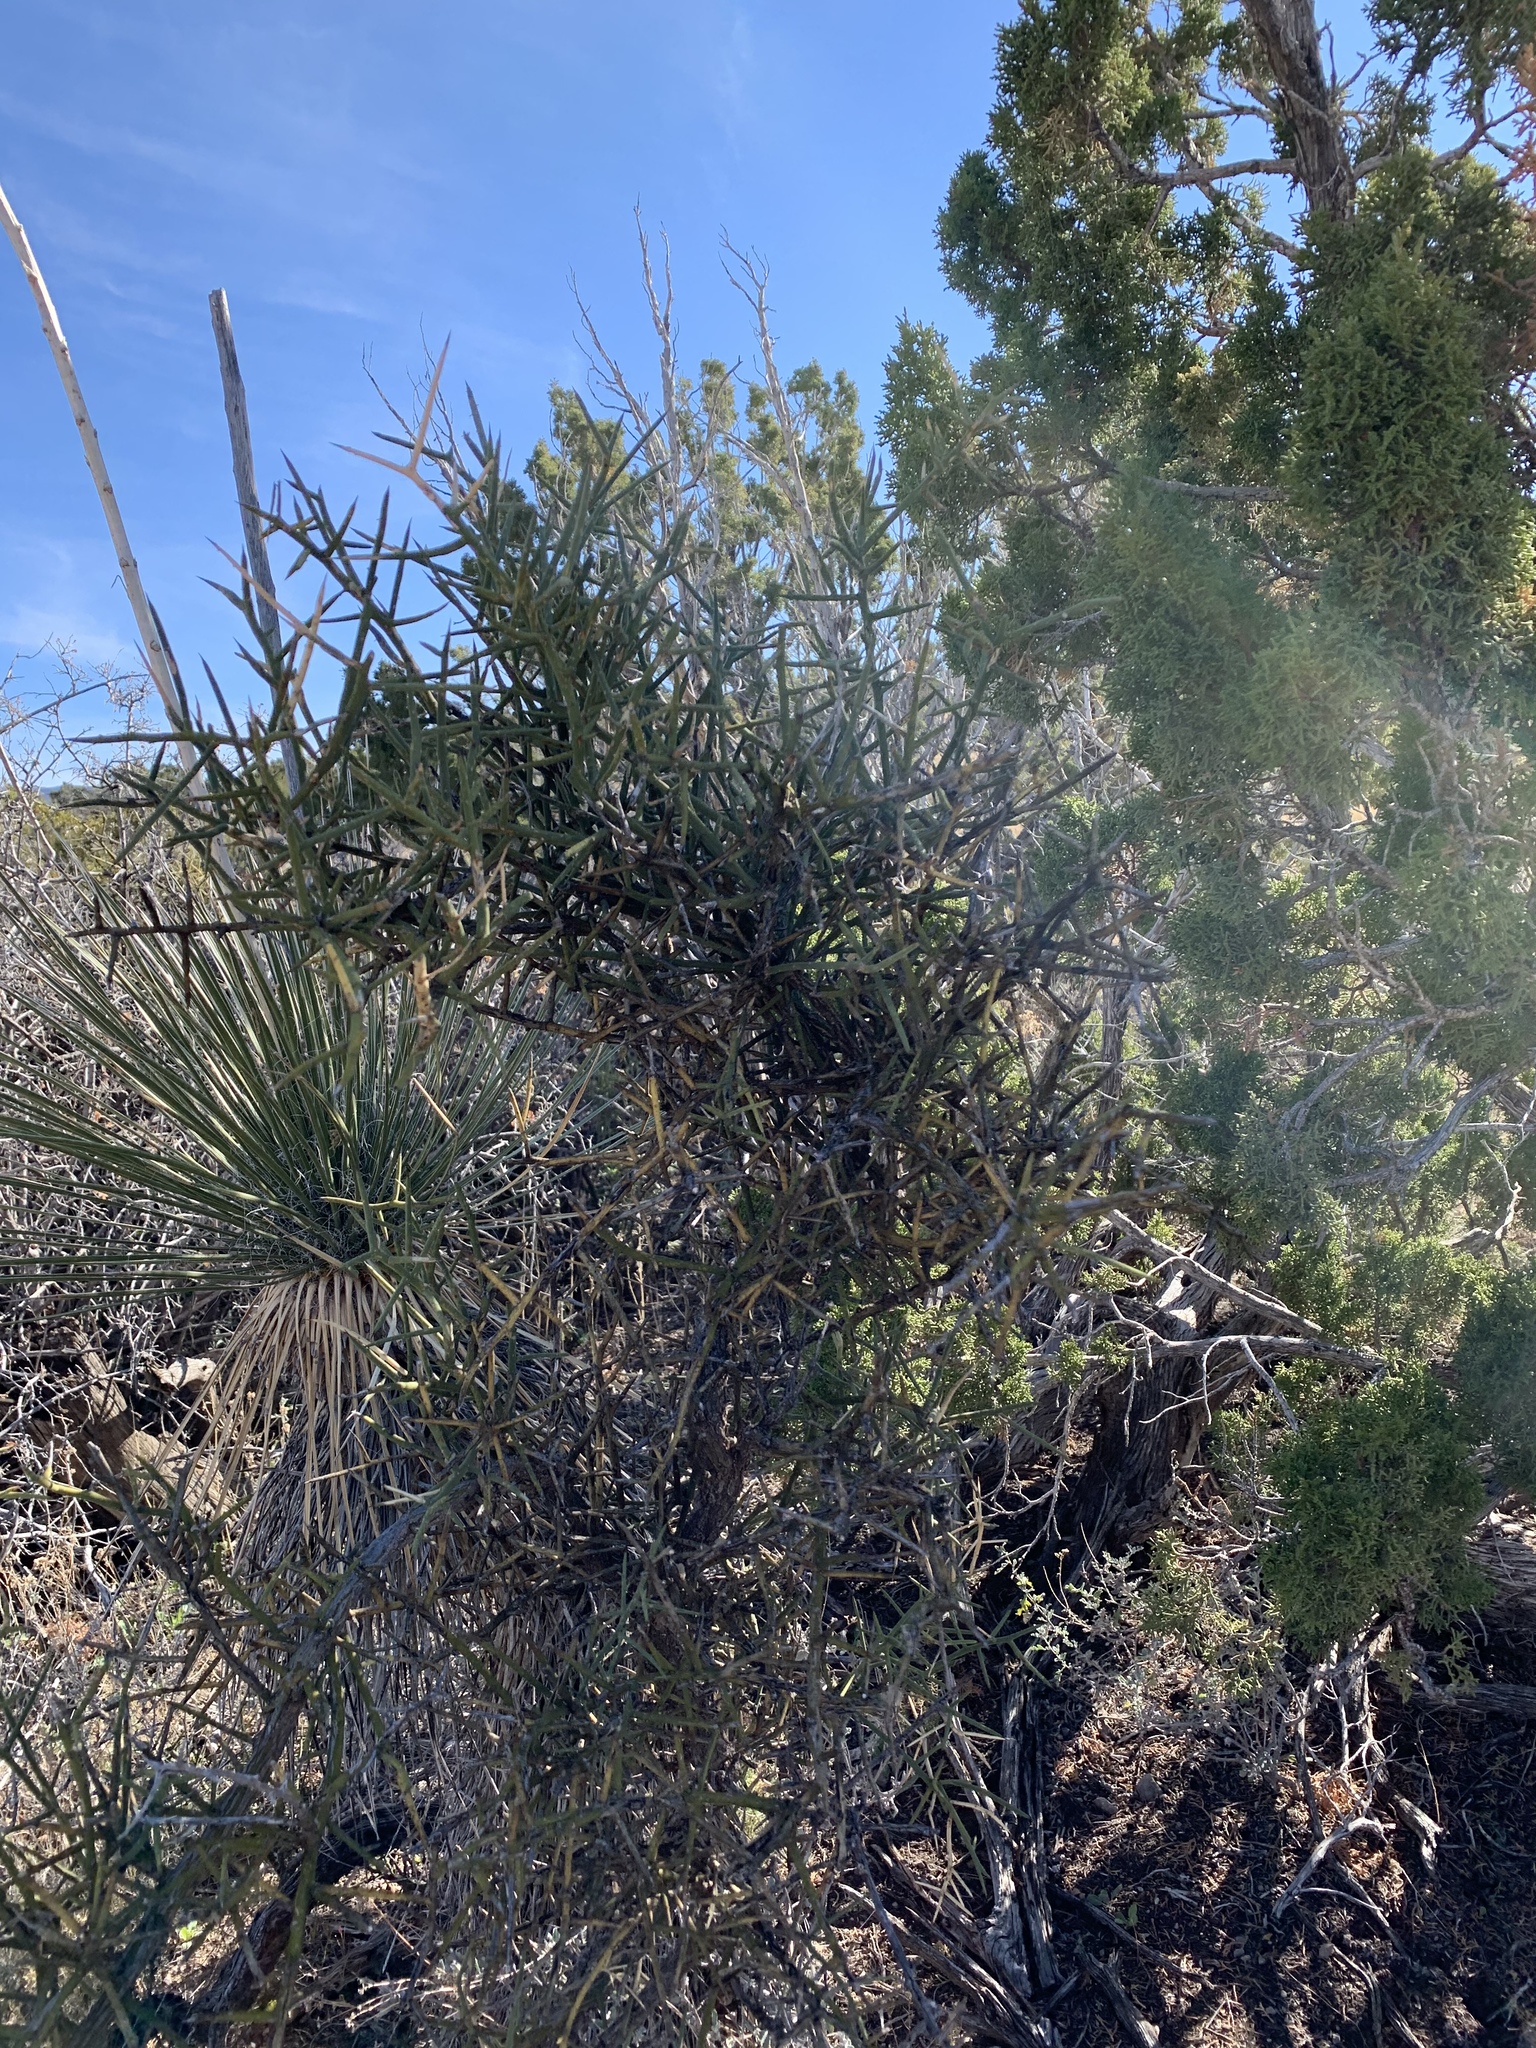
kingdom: Plantae
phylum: Tracheophyta
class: Magnoliopsida
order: Brassicales
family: Koeberliniaceae
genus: Koeberlinia
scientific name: Koeberlinia spinosa
